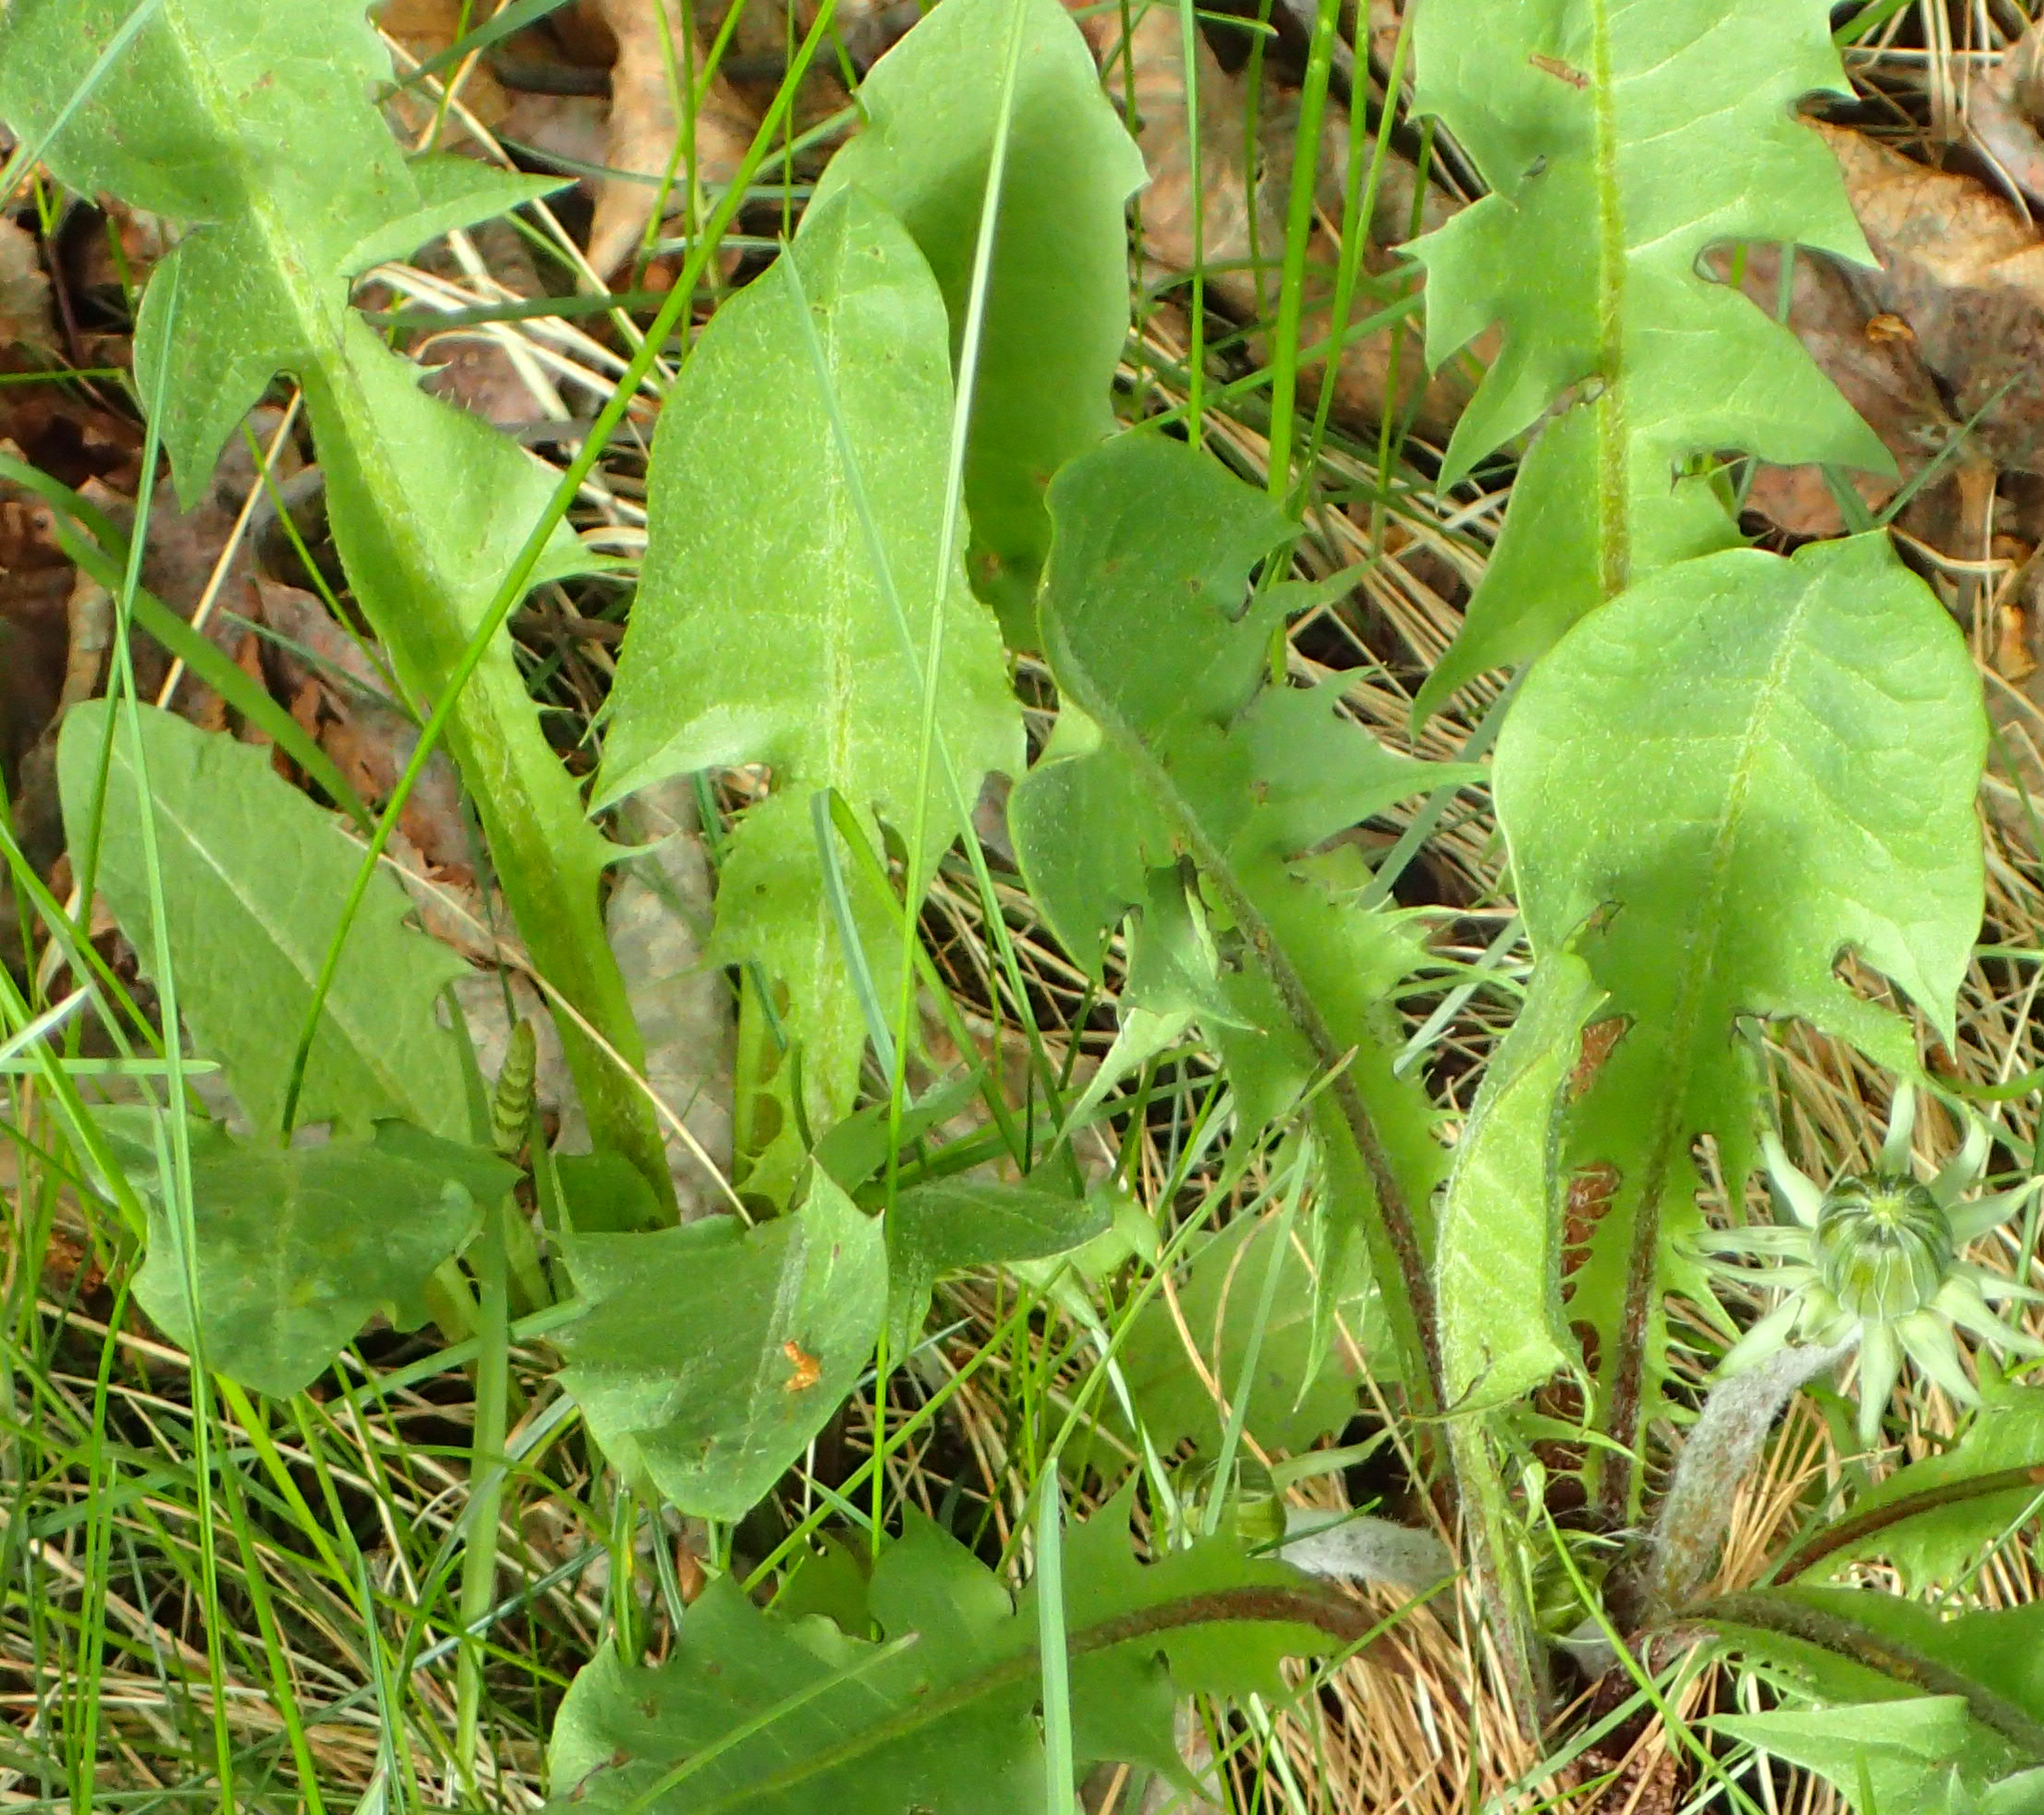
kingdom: Plantae
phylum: Tracheophyta
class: Magnoliopsida
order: Asterales
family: Asteraceae
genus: Taraxacum
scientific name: Taraxacum officinale
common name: Common dandelion
